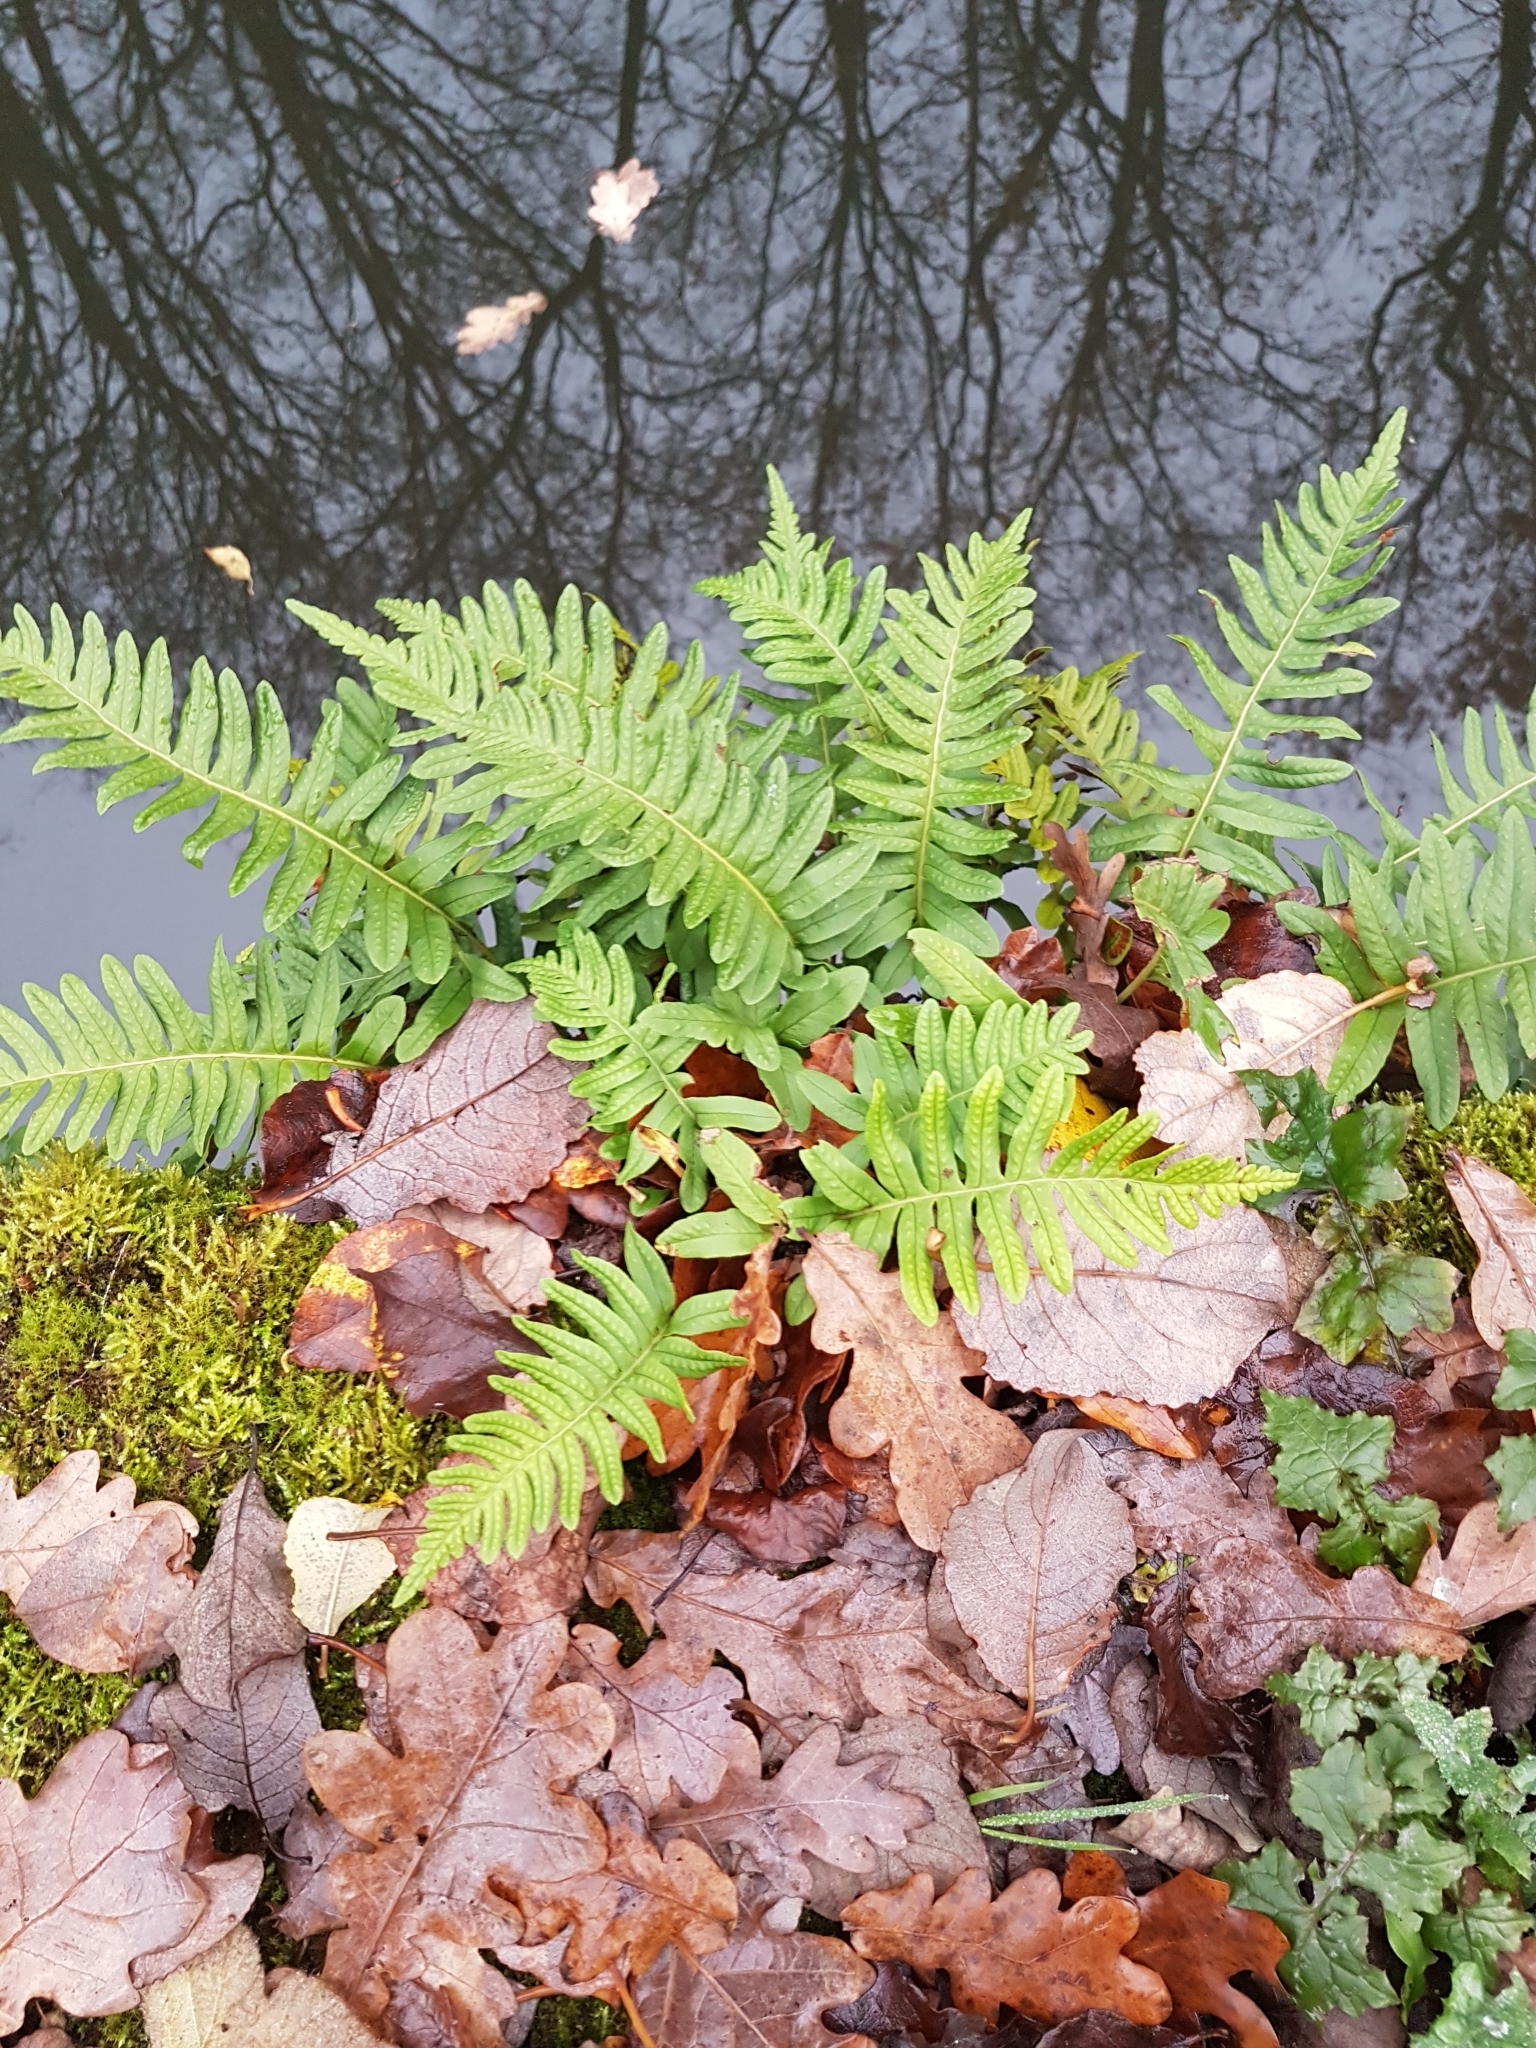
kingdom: Plantae
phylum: Tracheophyta
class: Polypodiopsida
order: Polypodiales
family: Polypodiaceae
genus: Polypodium
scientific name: Polypodium interjectum
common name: Intermediate polypody
